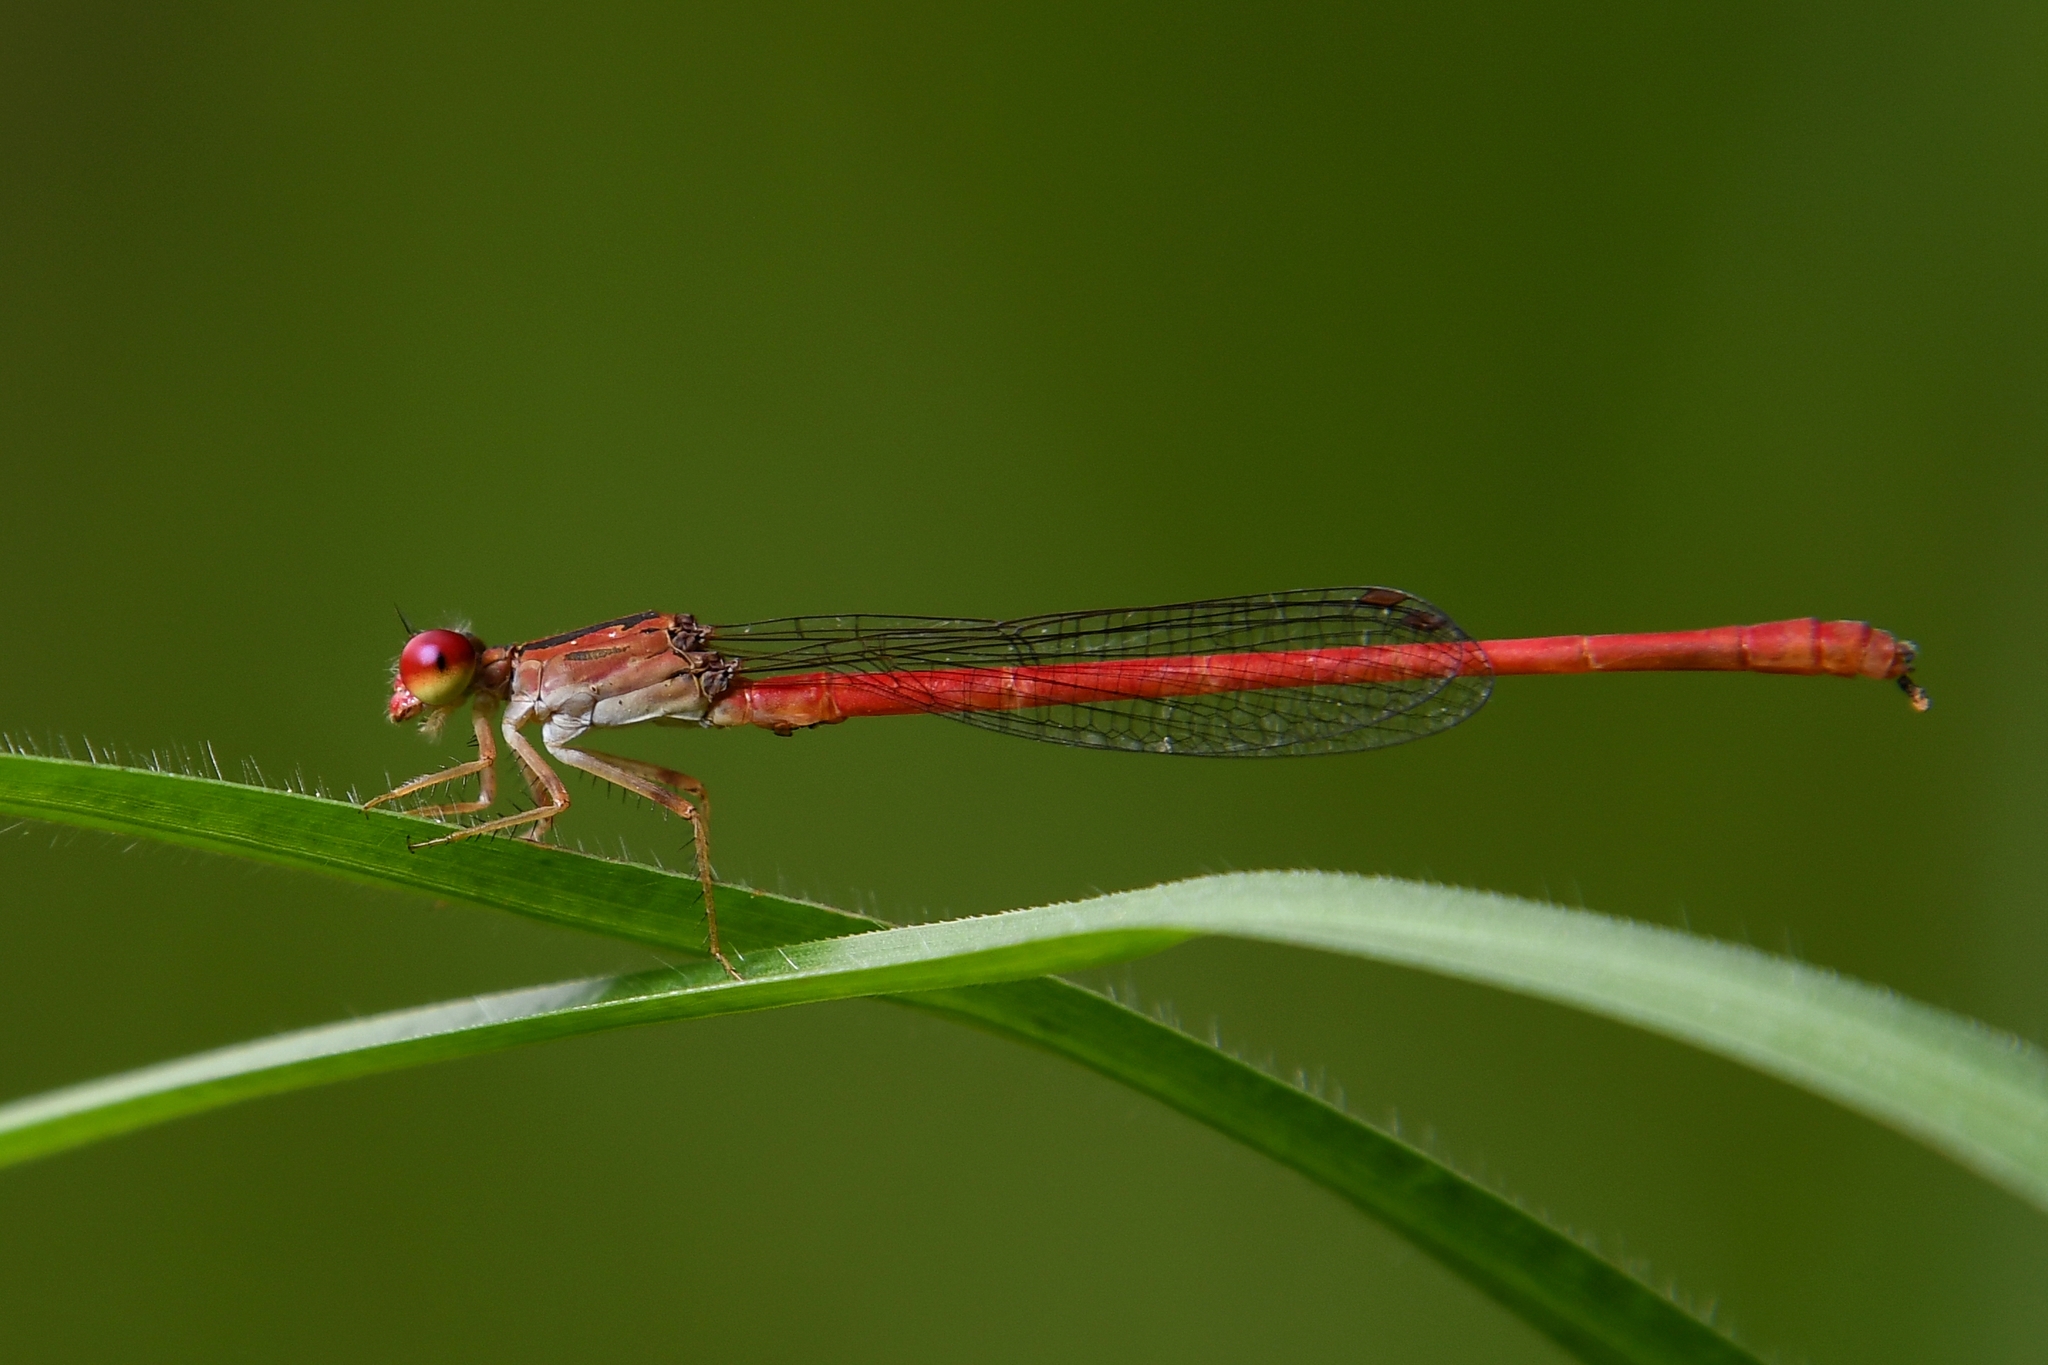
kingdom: Animalia
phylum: Arthropoda
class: Insecta
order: Odonata
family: Coenagrionidae
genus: Telebasis
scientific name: Telebasis byersi
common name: Duckweed firetail
